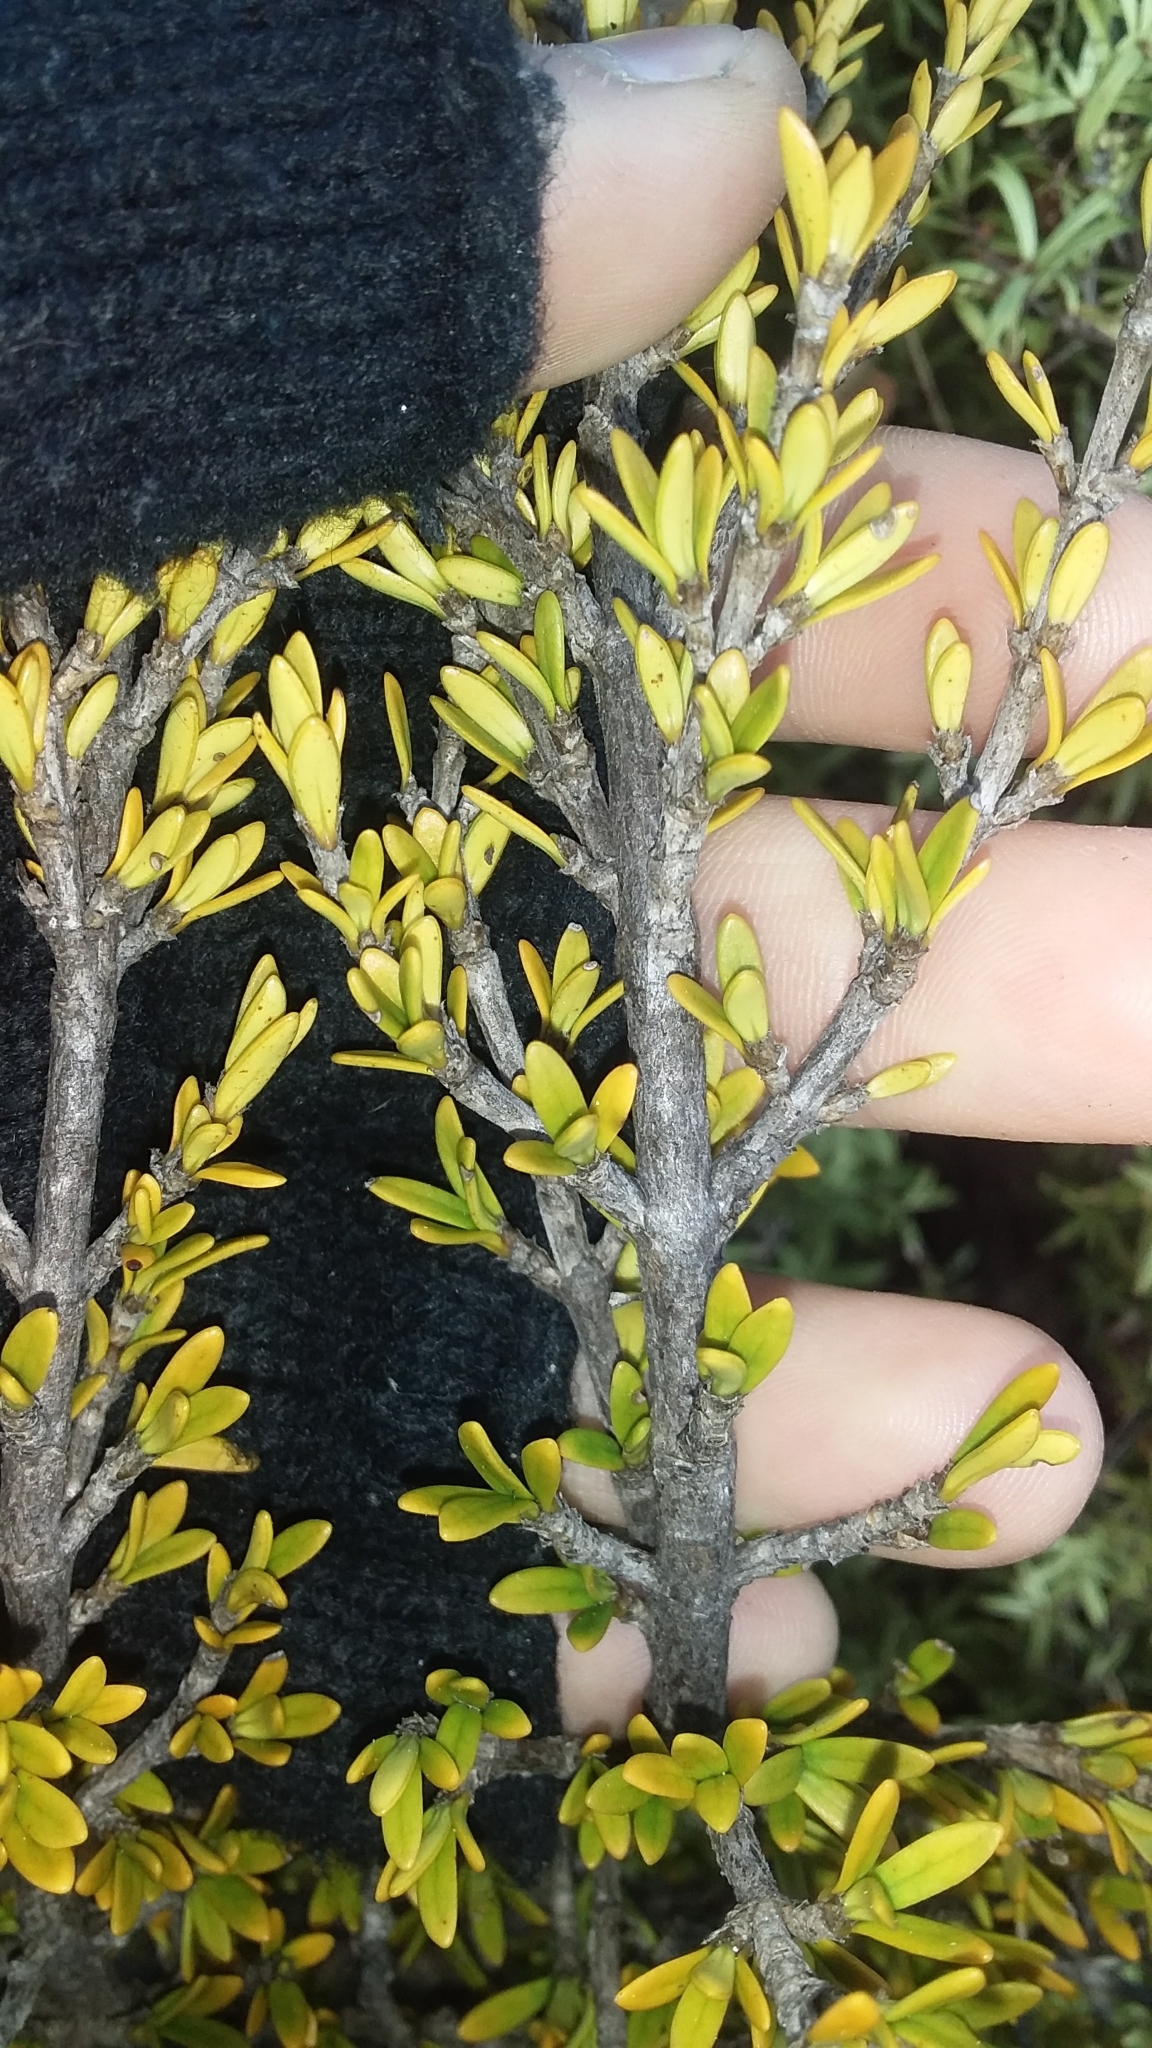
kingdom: Plantae
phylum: Tracheophyta
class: Magnoliopsida
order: Gentianales
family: Rubiaceae
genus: Coprosma
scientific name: Coprosma pseudocuneata
